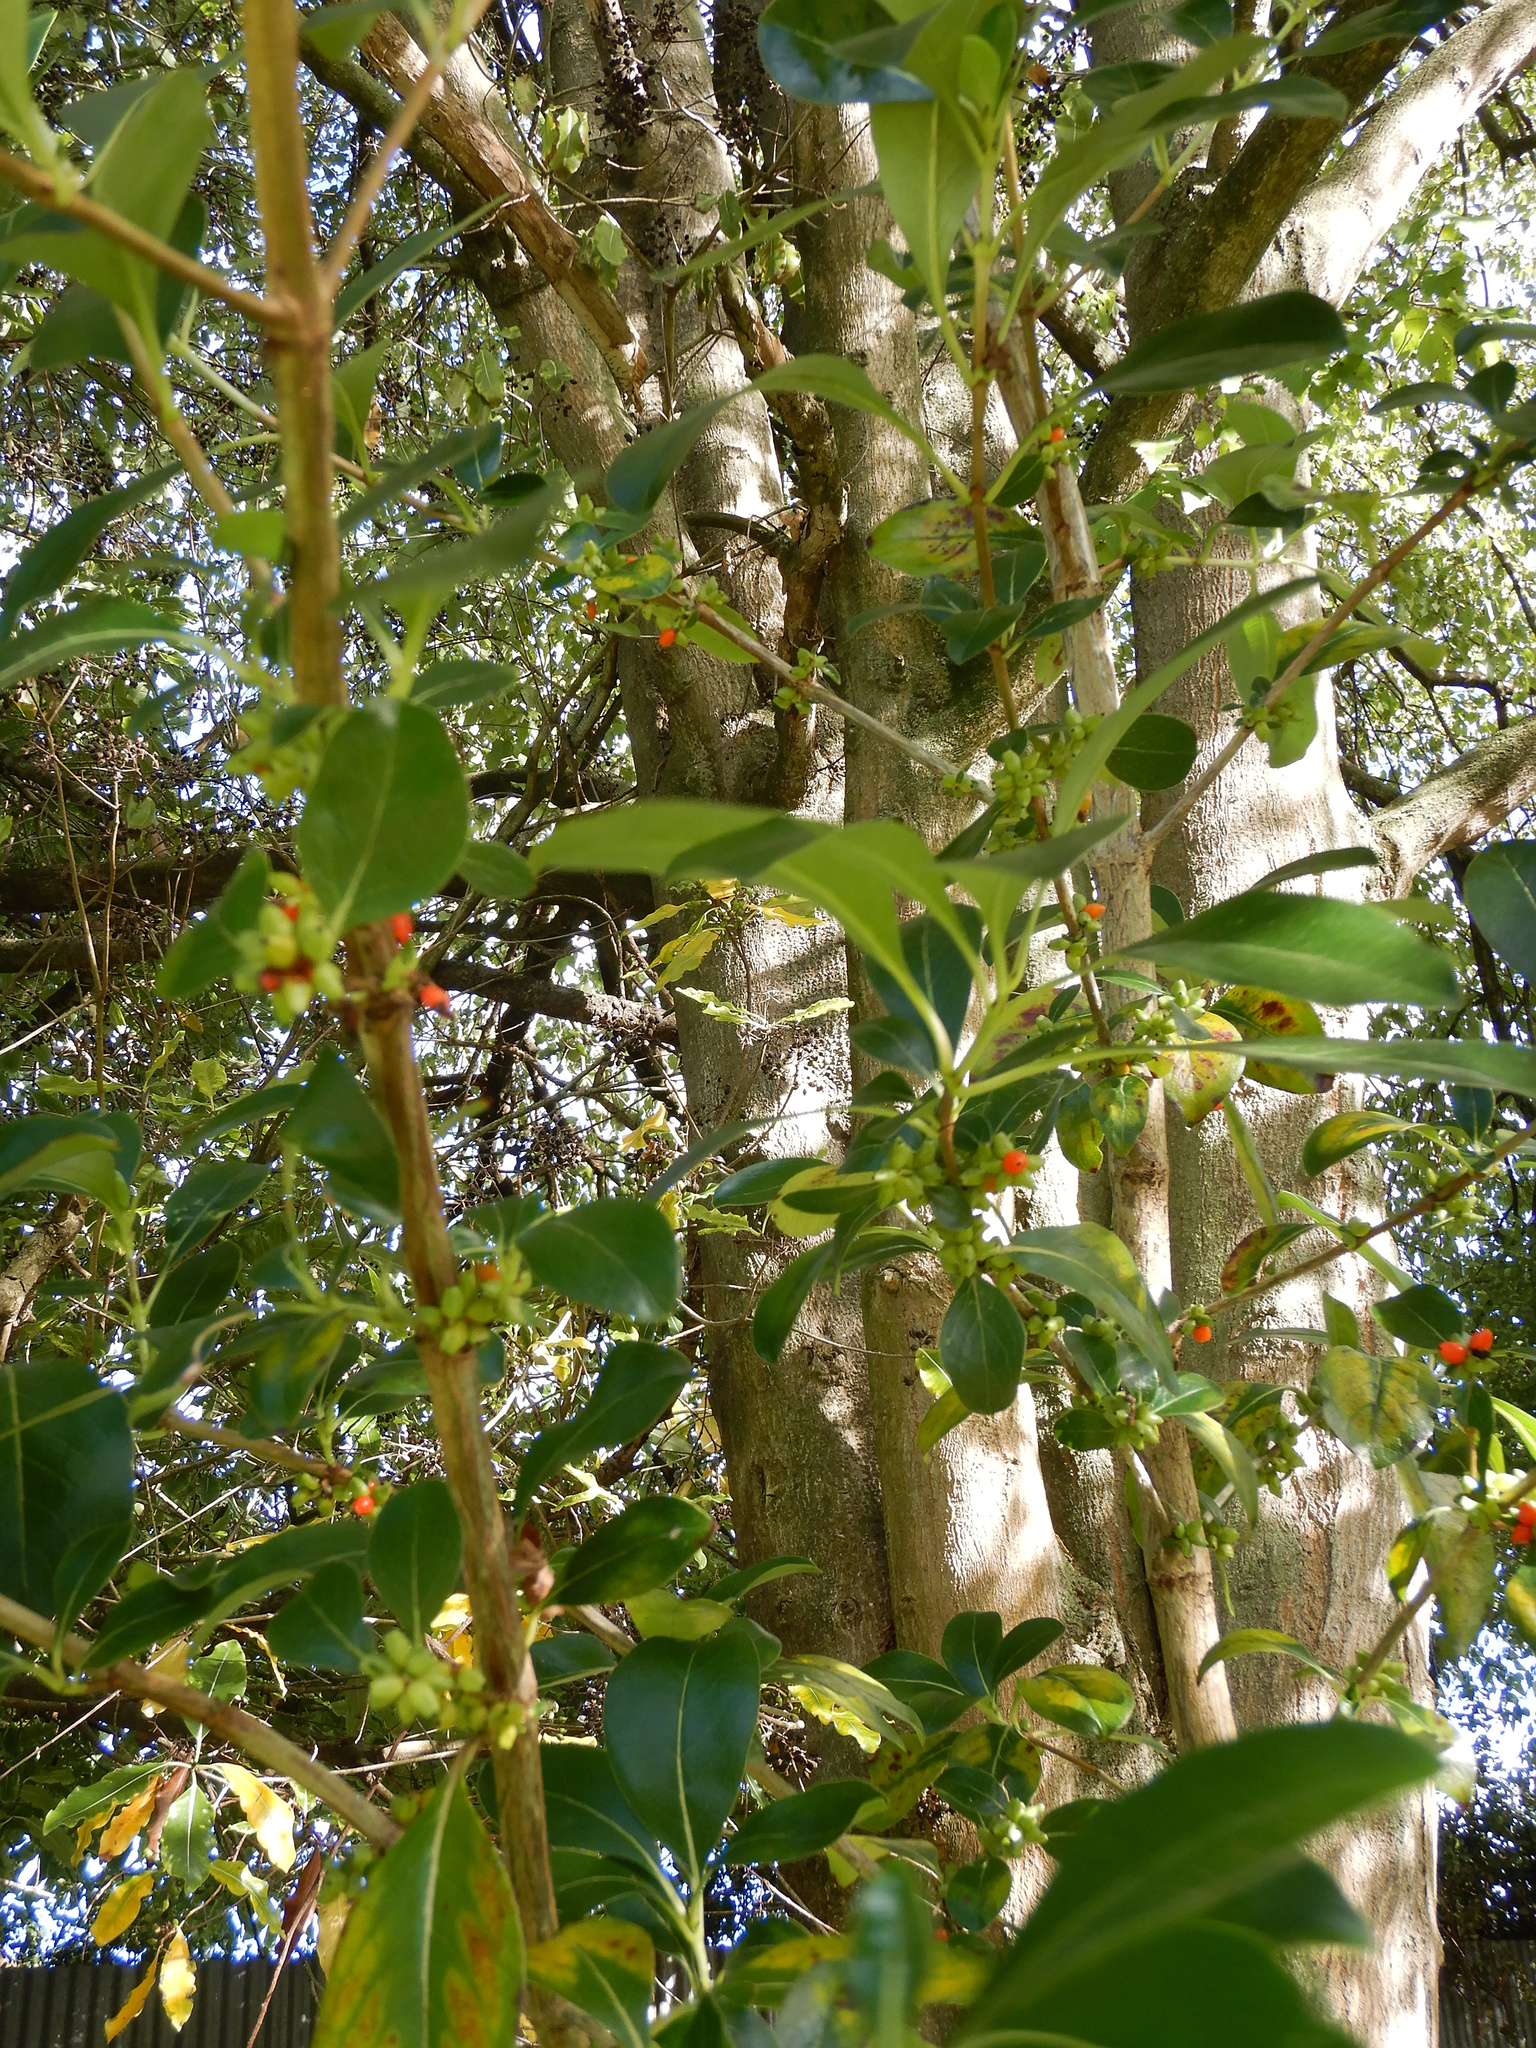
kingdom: Plantae
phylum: Tracheophyta
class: Magnoliopsida
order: Gentianales
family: Rubiaceae
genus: Coprosma
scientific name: Coprosma robusta
